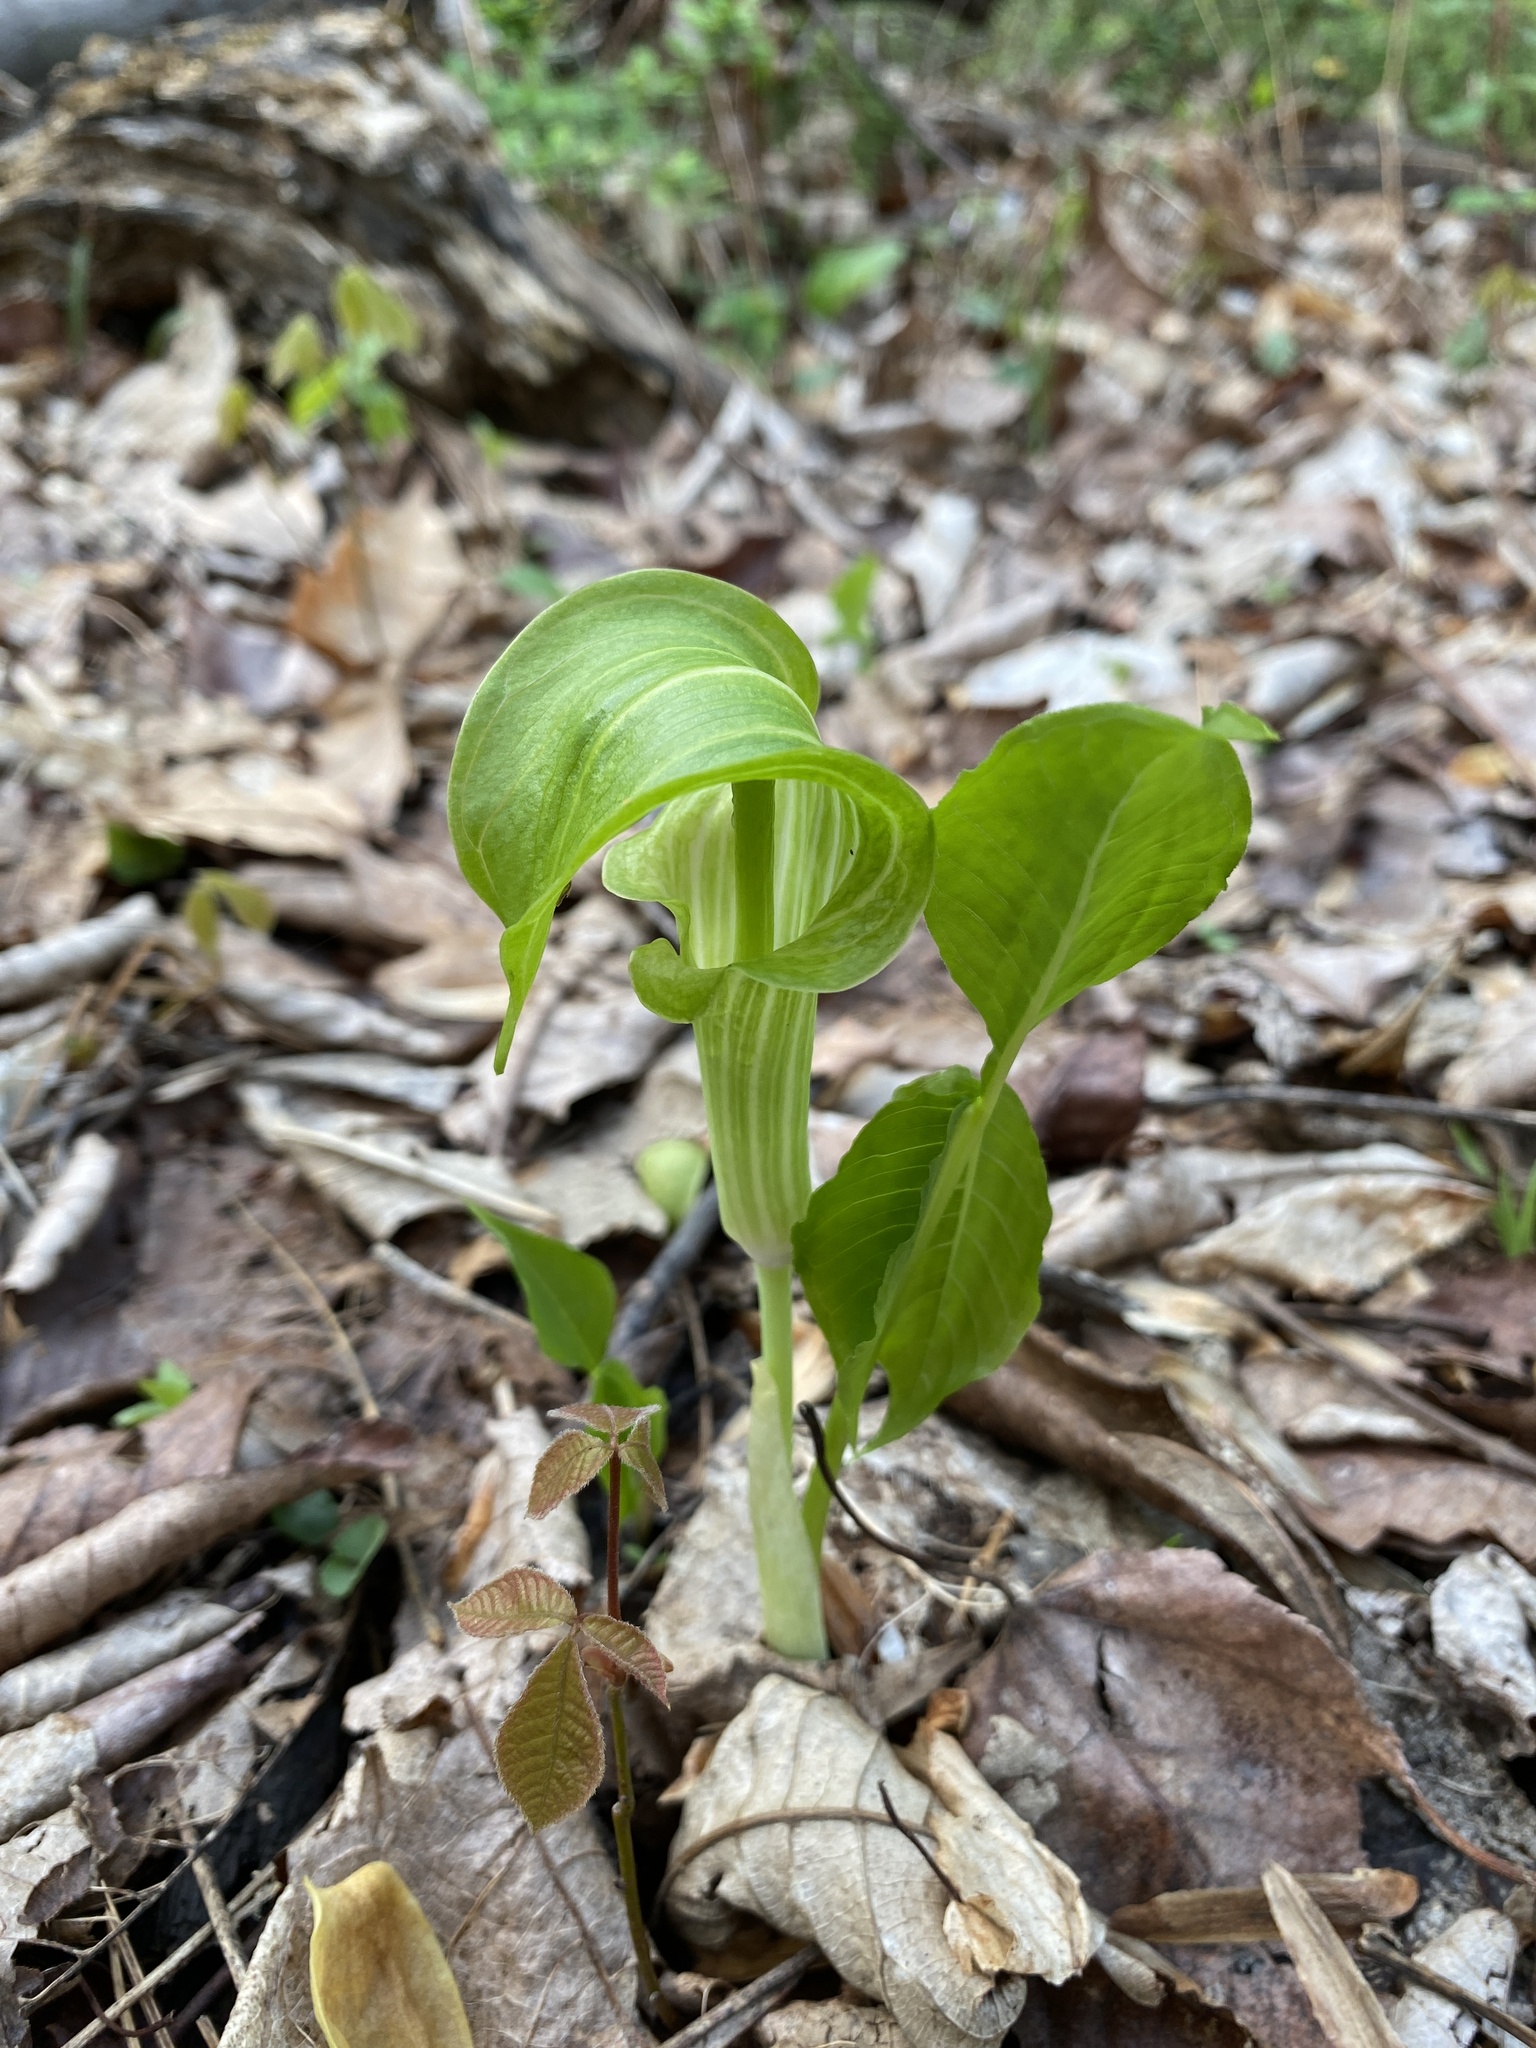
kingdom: Plantae
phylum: Tracheophyta
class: Liliopsida
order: Alismatales
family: Araceae
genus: Arisaema
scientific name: Arisaema triphyllum
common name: Jack-in-the-pulpit
